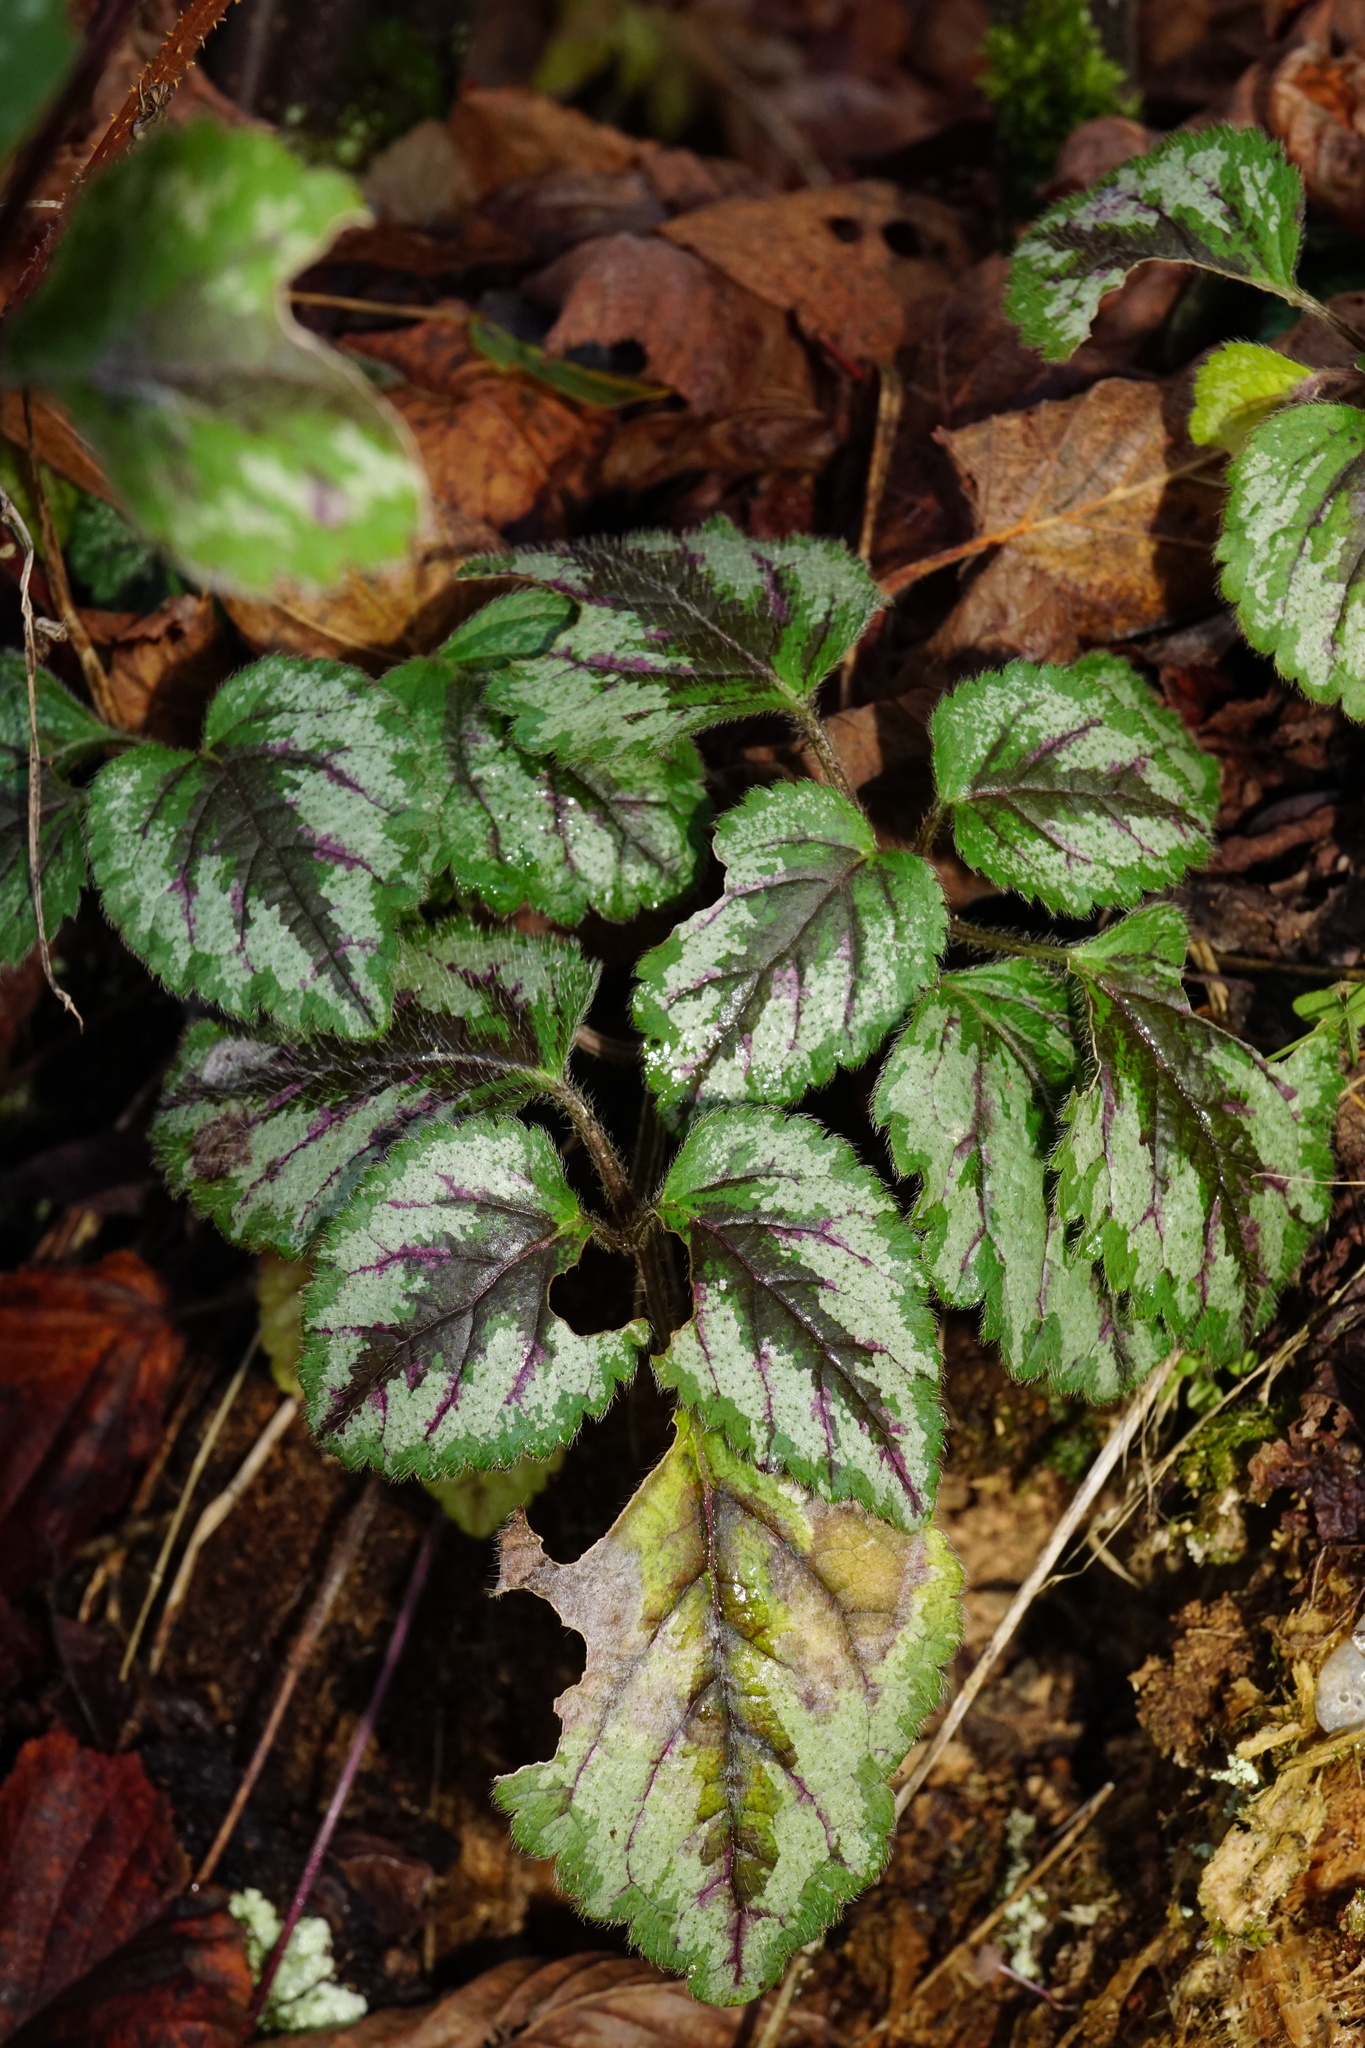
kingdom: Plantae
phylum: Tracheophyta
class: Magnoliopsida
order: Lamiales
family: Lamiaceae
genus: Lamium
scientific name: Lamium galeobdolon
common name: Yellow archangel
